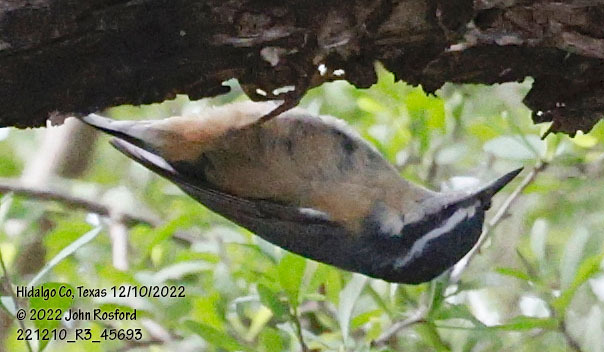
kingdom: Animalia
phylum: Chordata
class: Aves
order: Passeriformes
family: Sittidae
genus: Sitta
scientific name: Sitta canadensis
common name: Red-breasted nuthatch
